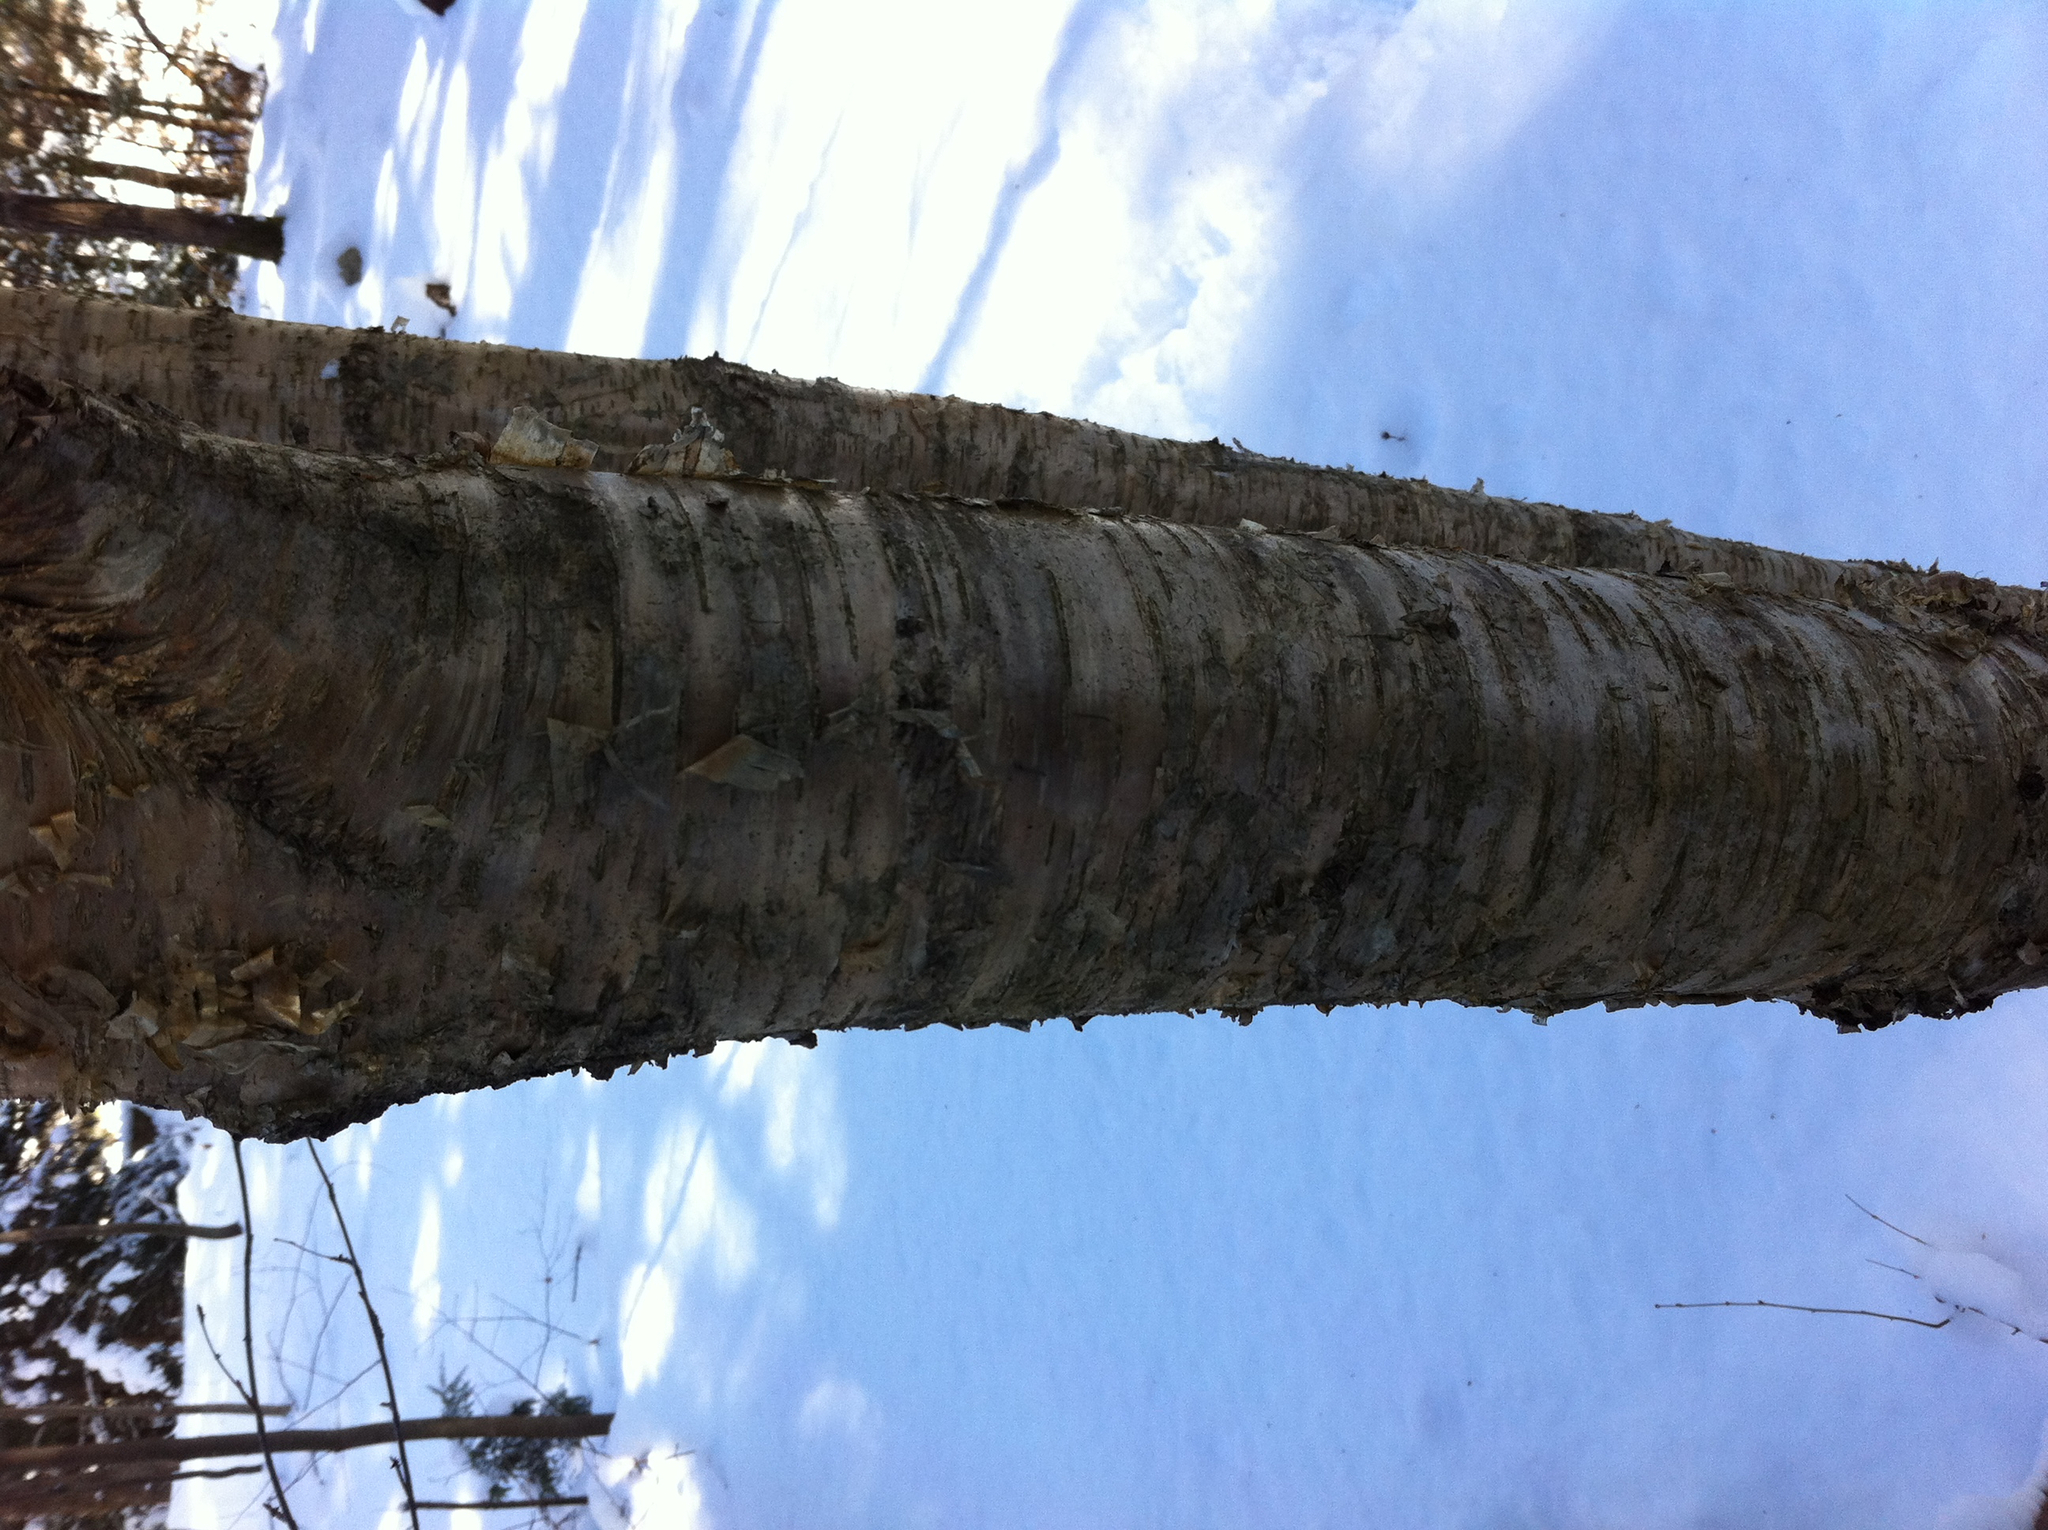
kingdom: Plantae
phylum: Tracheophyta
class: Magnoliopsida
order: Fagales
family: Betulaceae
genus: Betula
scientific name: Betula alleghaniensis
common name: Yellow birch
